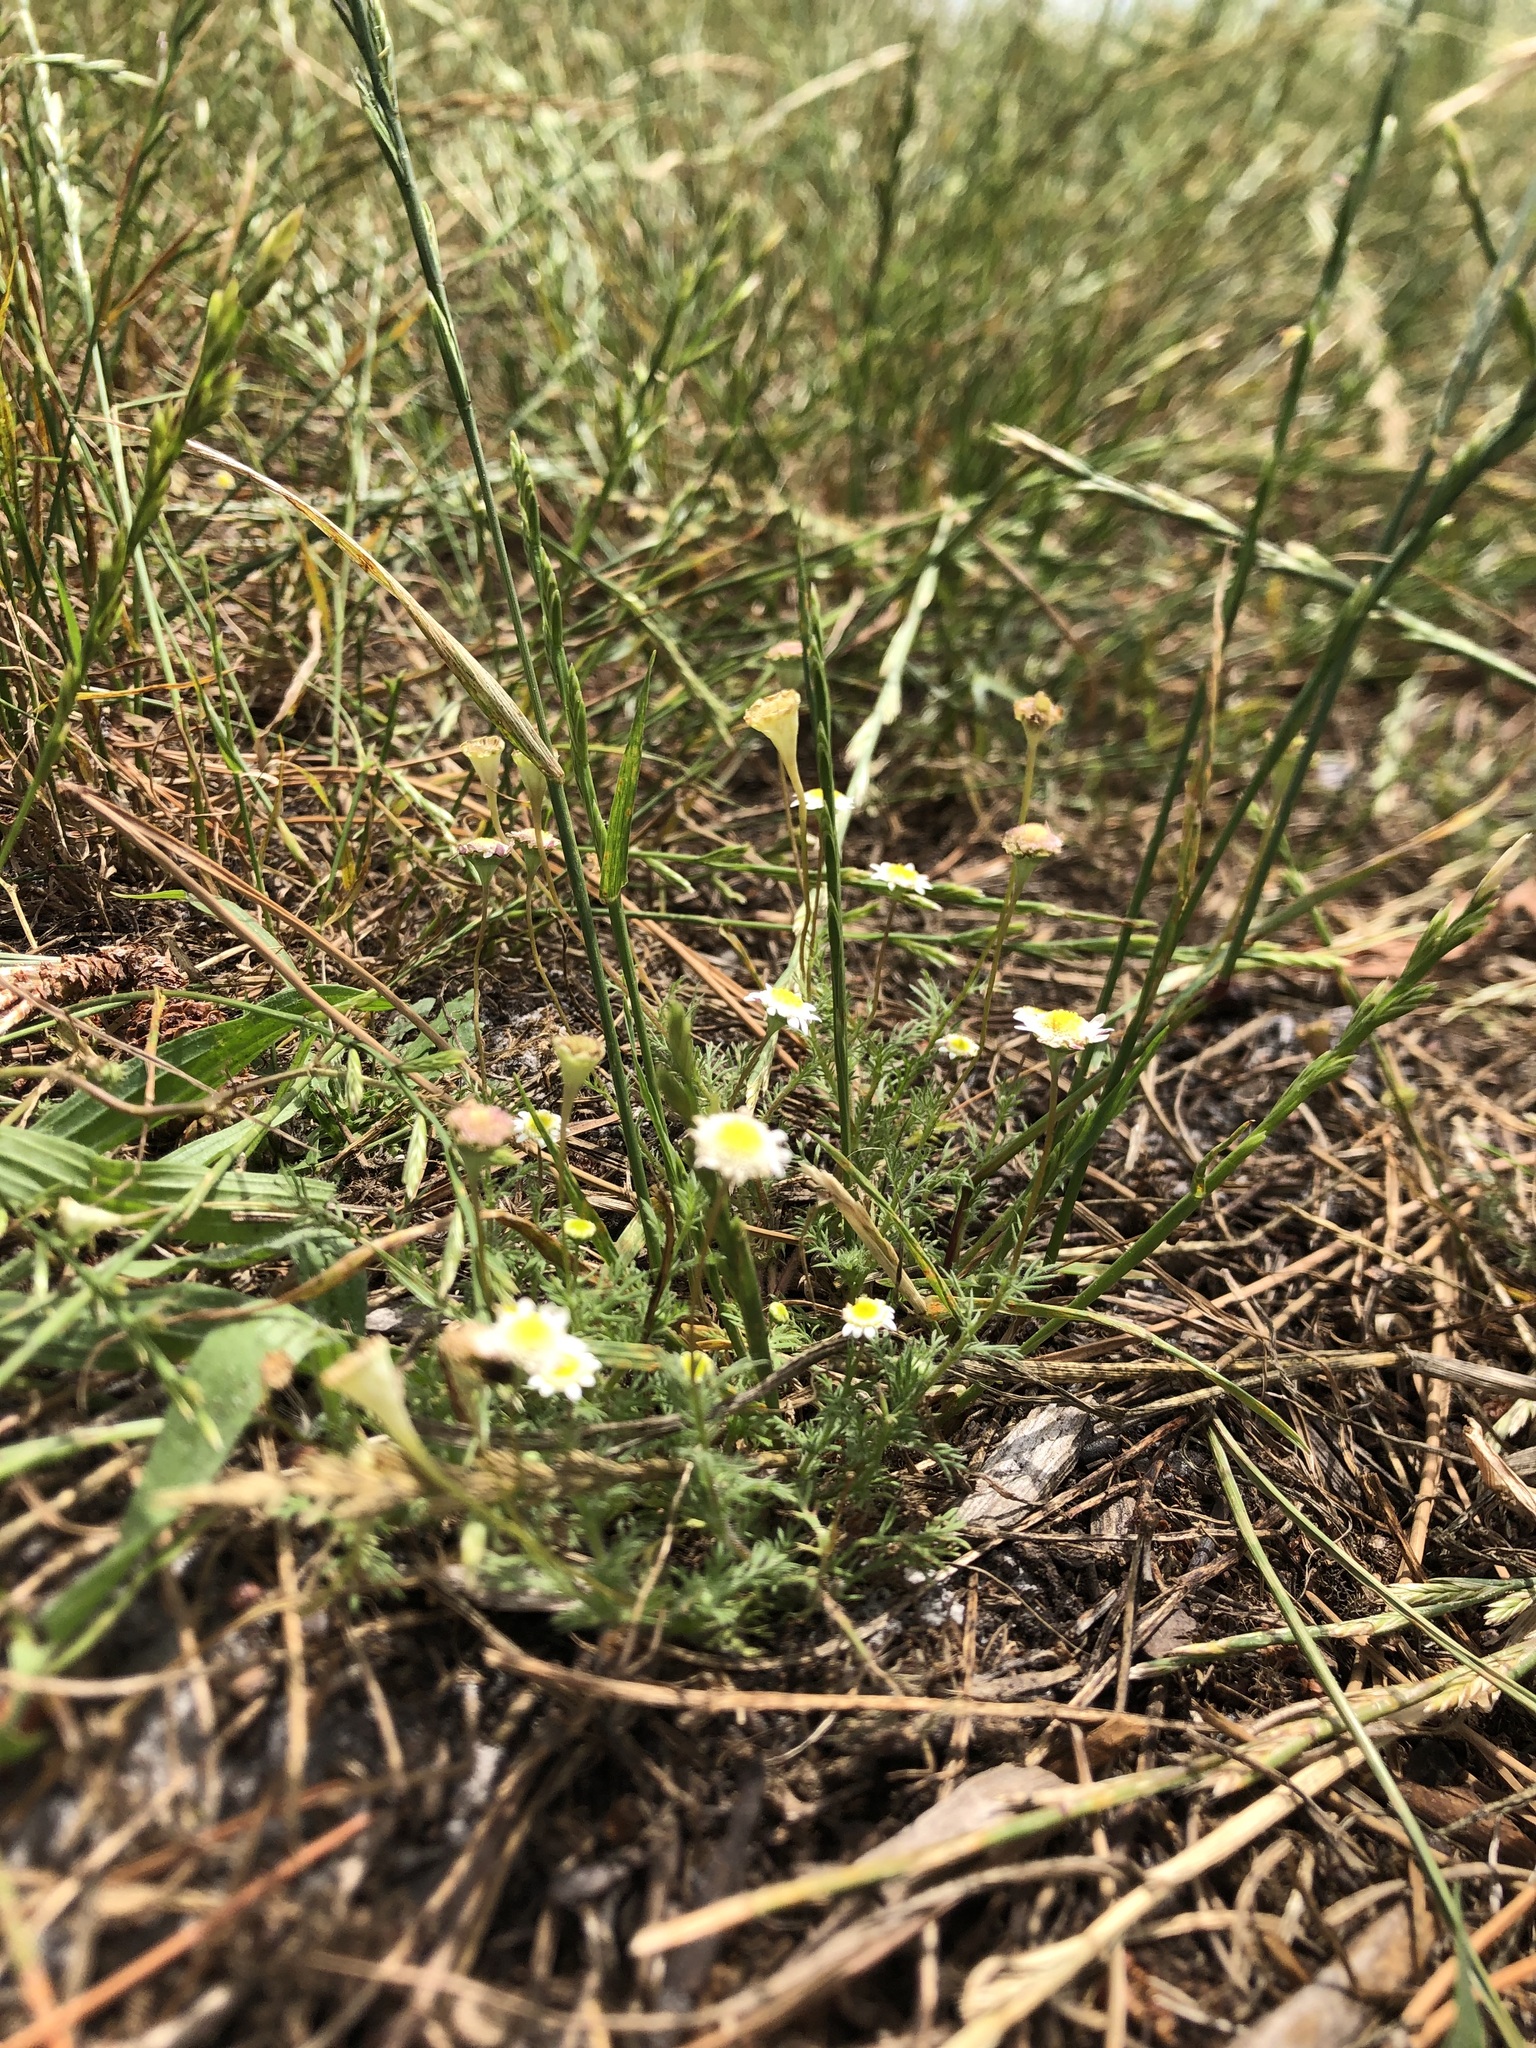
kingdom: Plantae
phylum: Tracheophyta
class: Magnoliopsida
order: Asterales
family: Asteraceae
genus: Cotula
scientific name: Cotula turbinata
